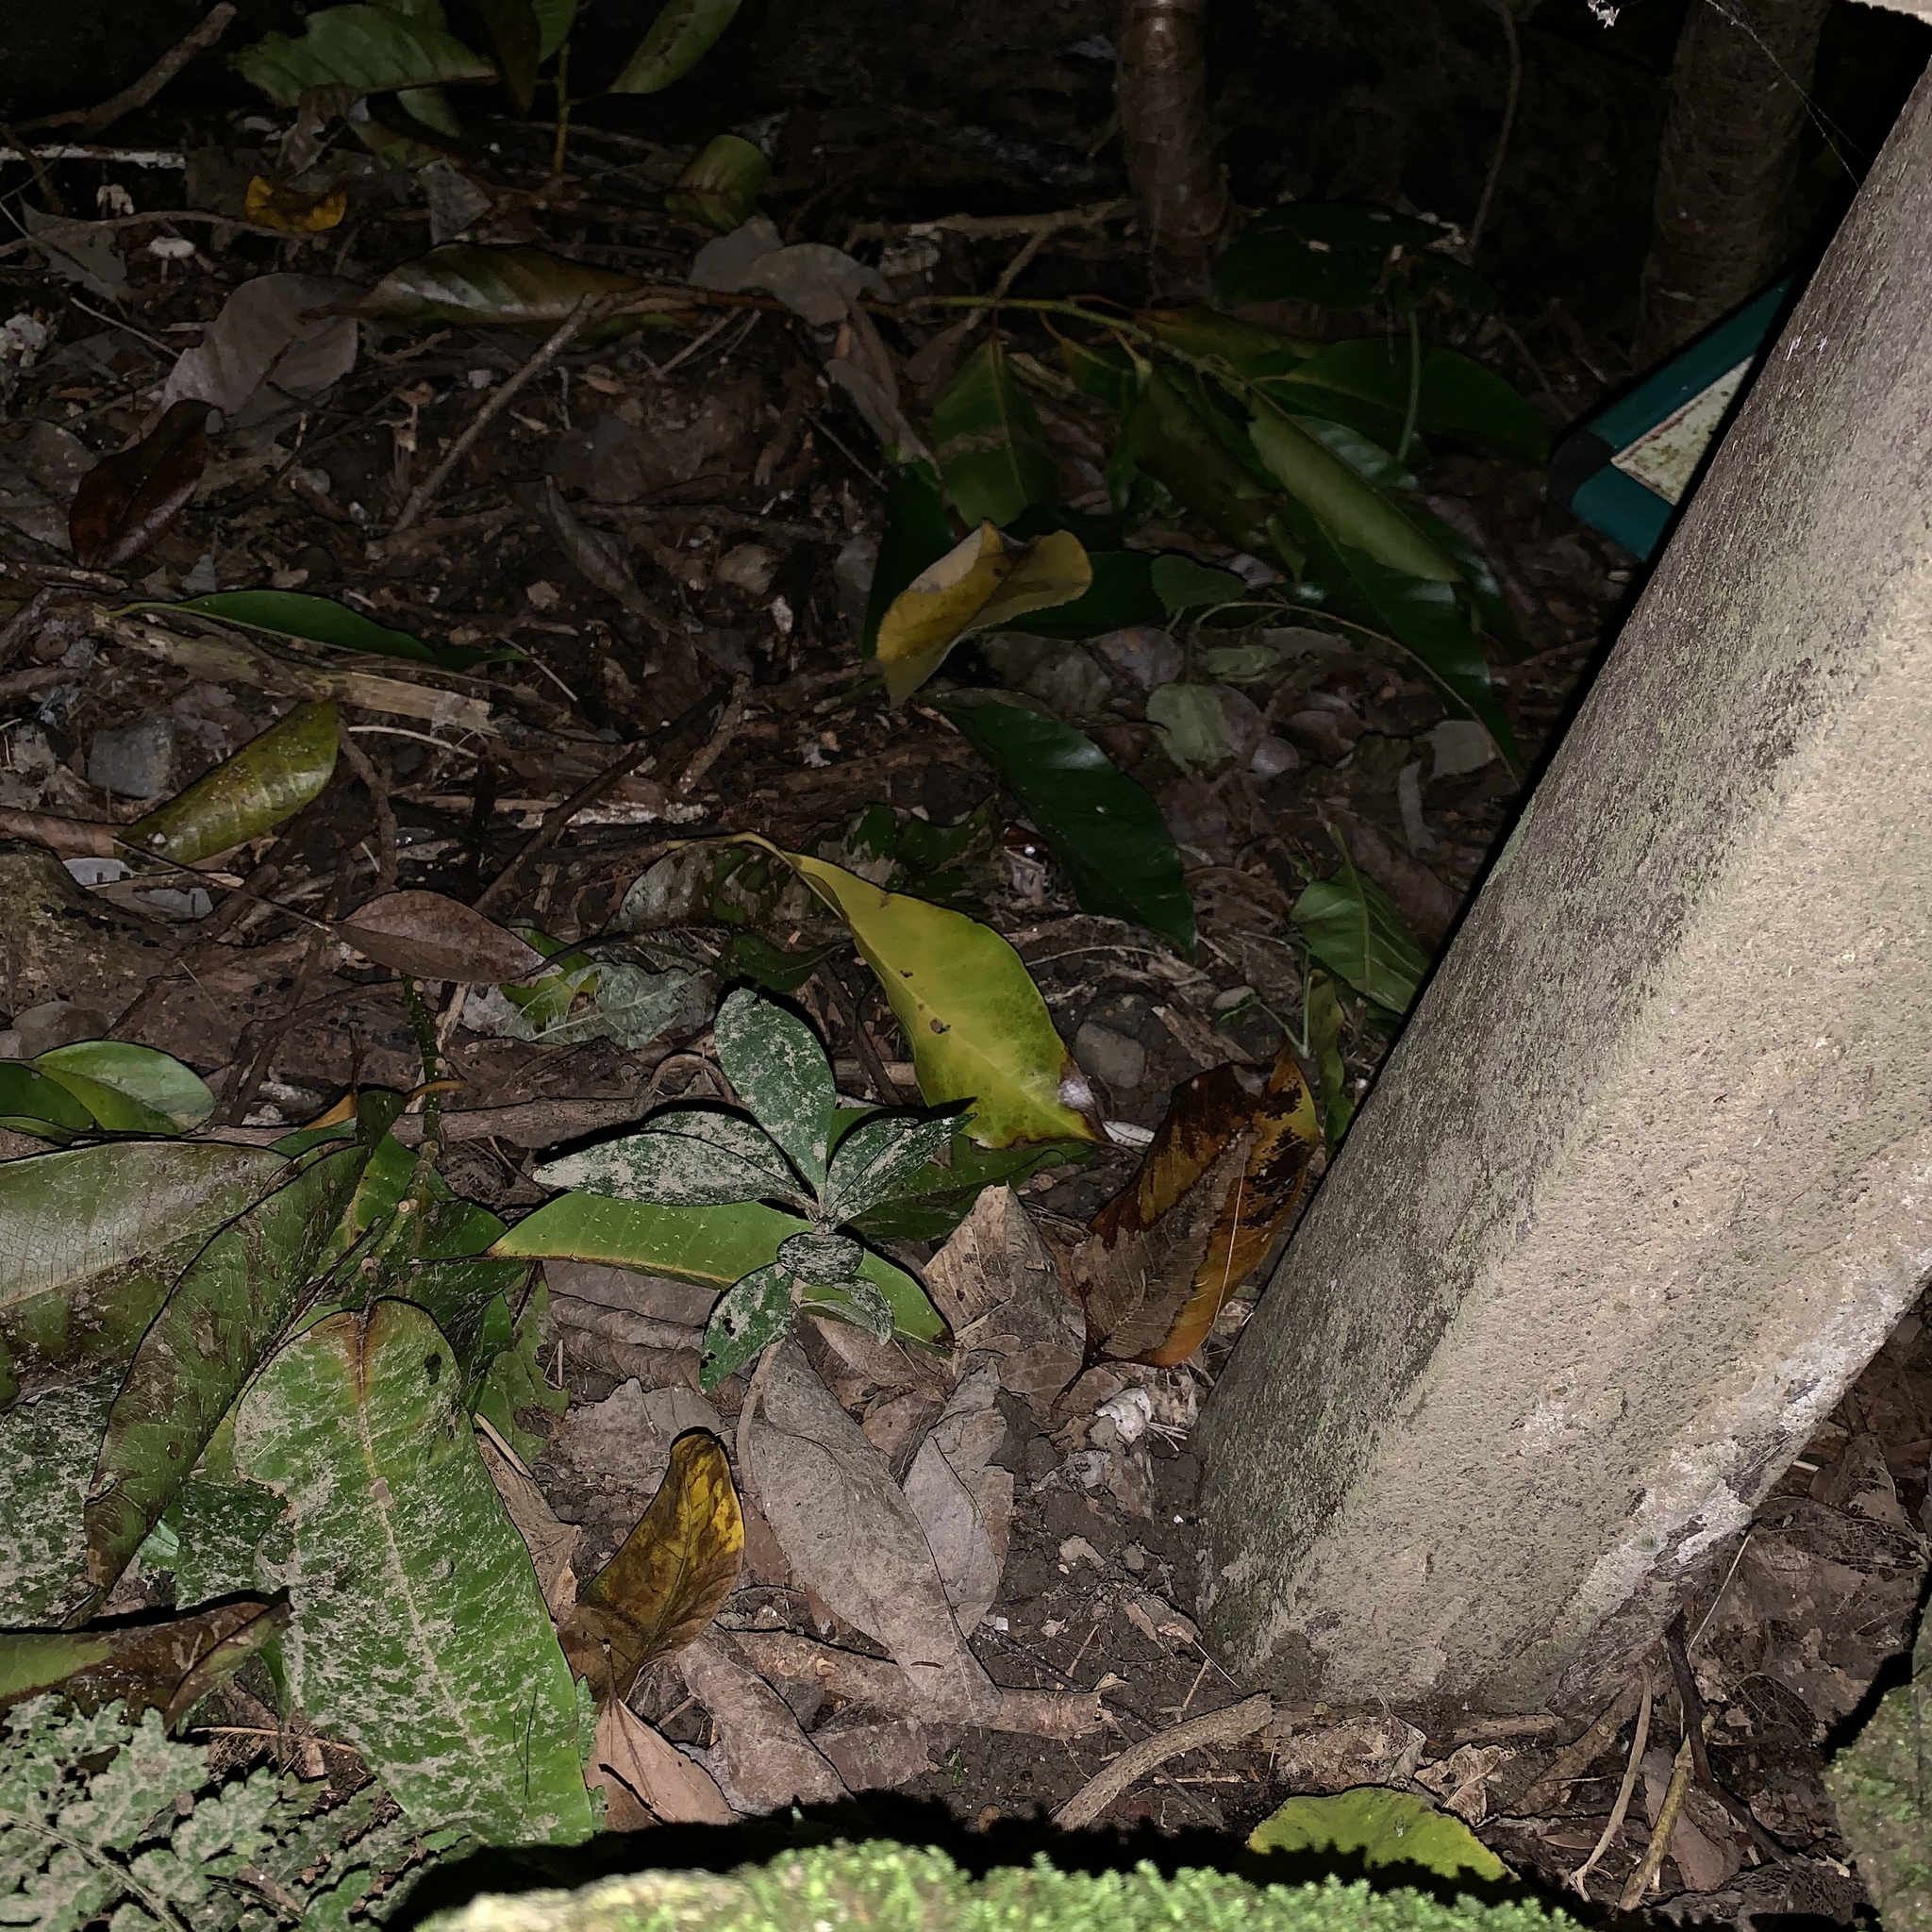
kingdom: Animalia
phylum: Chordata
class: Amphibia
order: Anura
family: Ranidae
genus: Hylarana
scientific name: Hylarana latouchii
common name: Broad-folded frog
